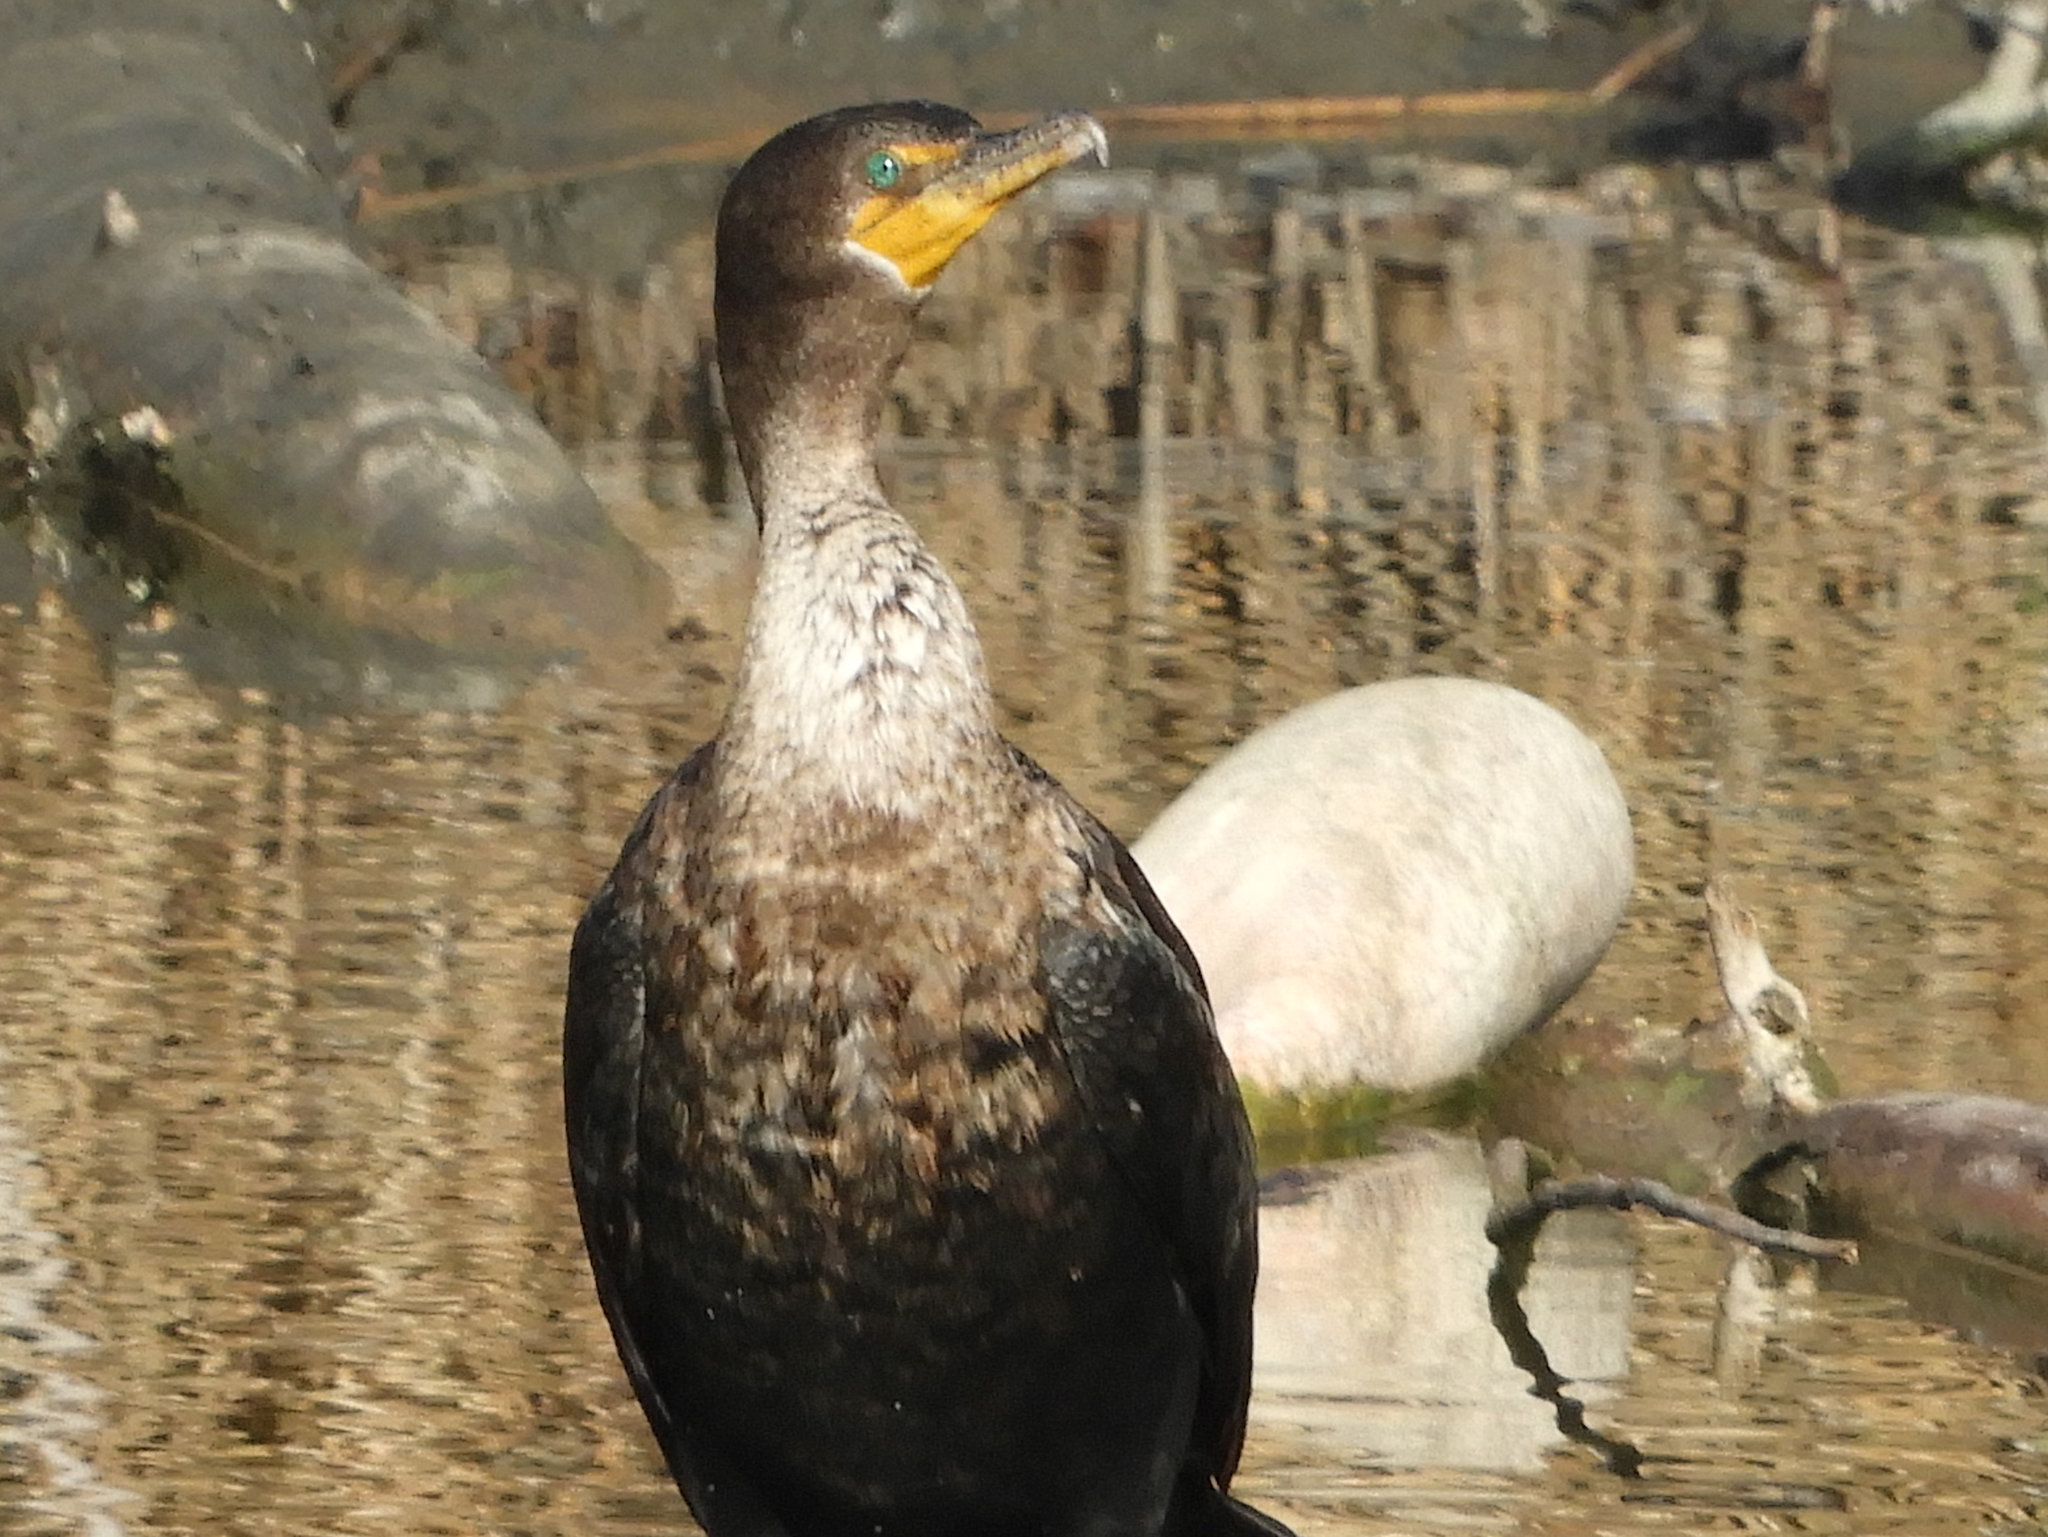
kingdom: Animalia
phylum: Chordata
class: Aves
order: Suliformes
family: Phalacrocoracidae
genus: Phalacrocorax
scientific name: Phalacrocorax auritus
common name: Double-crested cormorant
